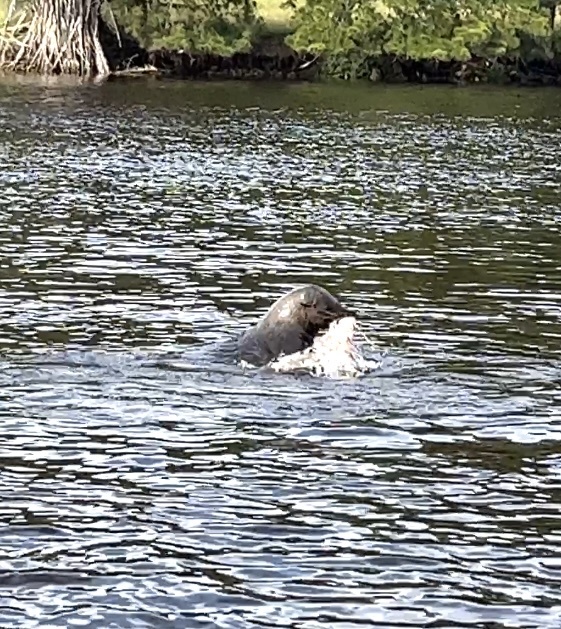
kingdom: Animalia
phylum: Chordata
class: Mammalia
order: Carnivora
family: Otariidae
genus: Arctocephalus
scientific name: Arctocephalus pusillus
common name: Brown fur seal
